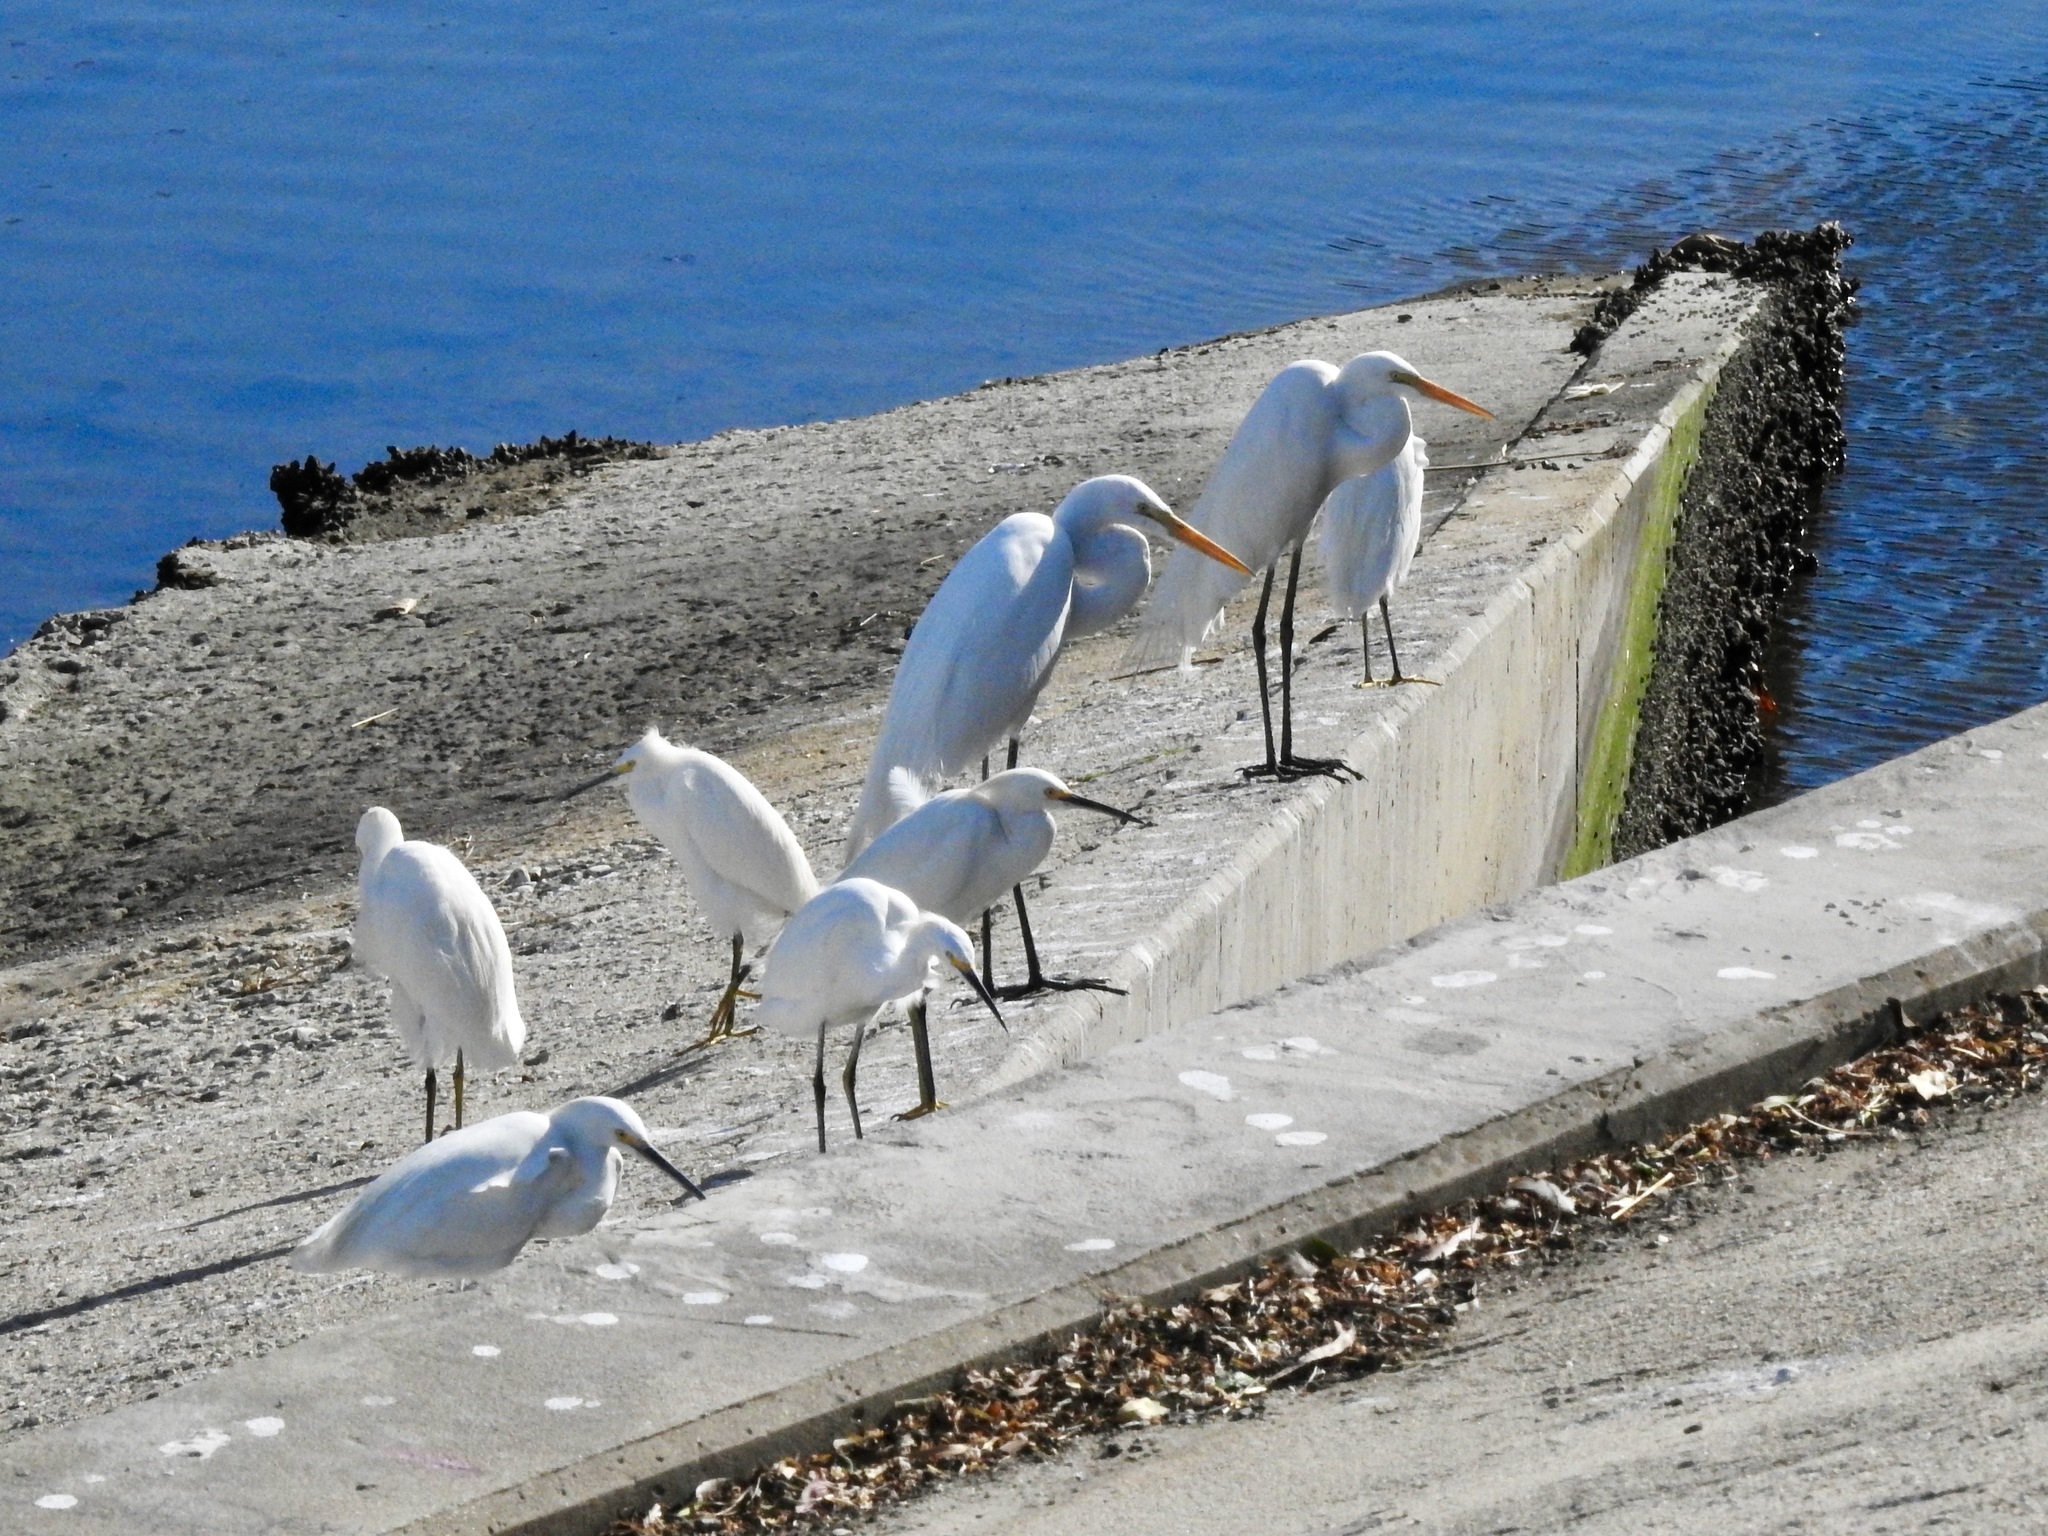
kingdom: Animalia
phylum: Chordata
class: Aves
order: Pelecaniformes
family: Ardeidae
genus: Egretta
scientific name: Egretta thula
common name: Snowy egret
